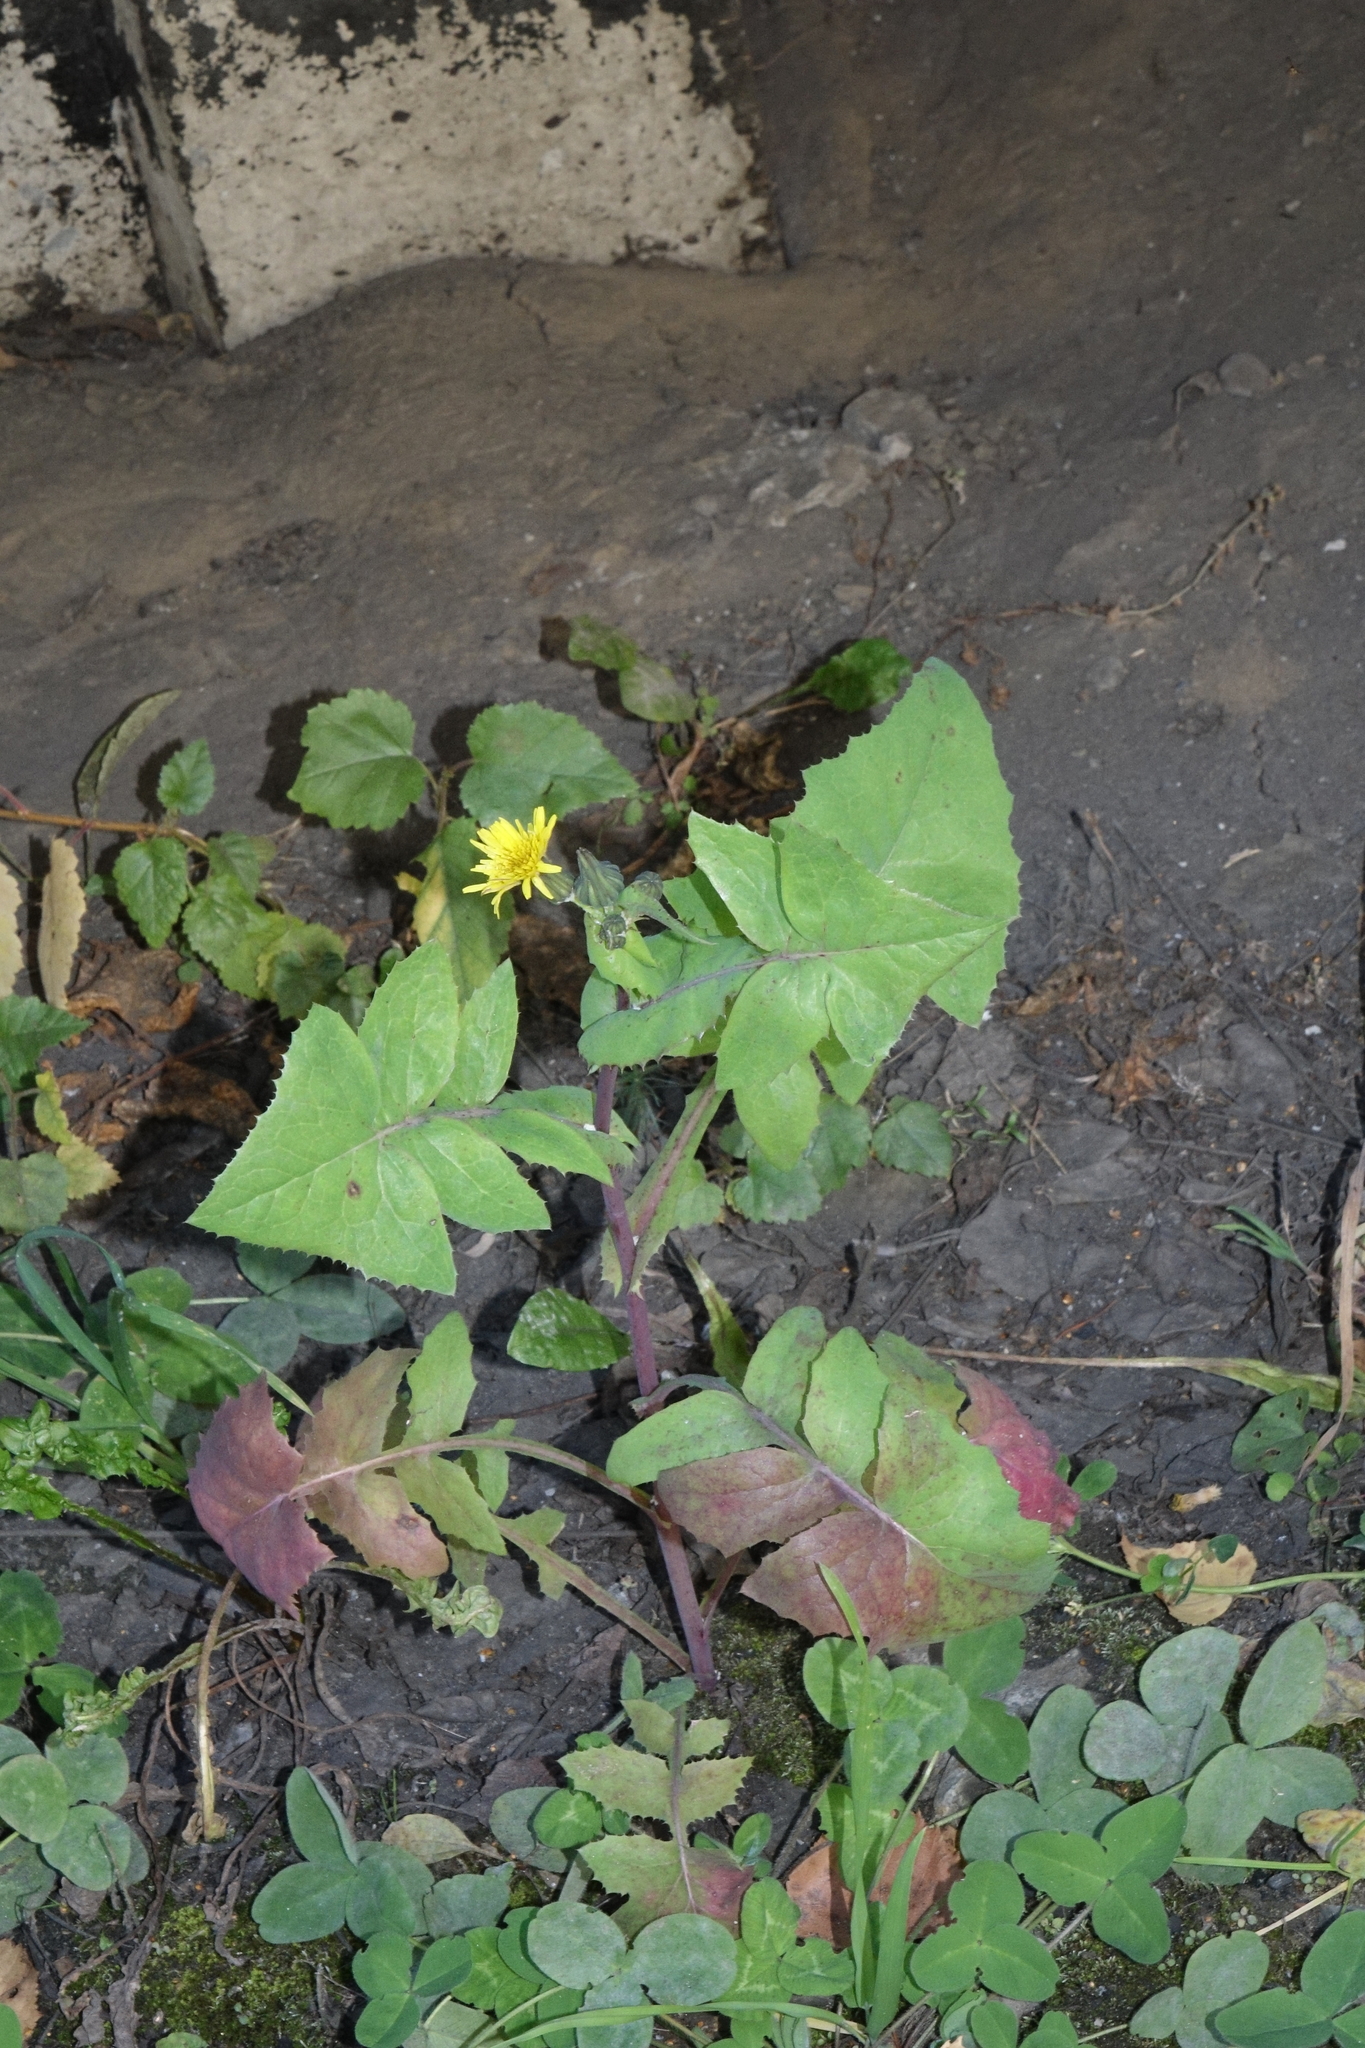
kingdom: Plantae
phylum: Tracheophyta
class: Magnoliopsida
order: Asterales
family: Asteraceae
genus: Sonchus
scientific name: Sonchus oleraceus
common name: Common sowthistle
